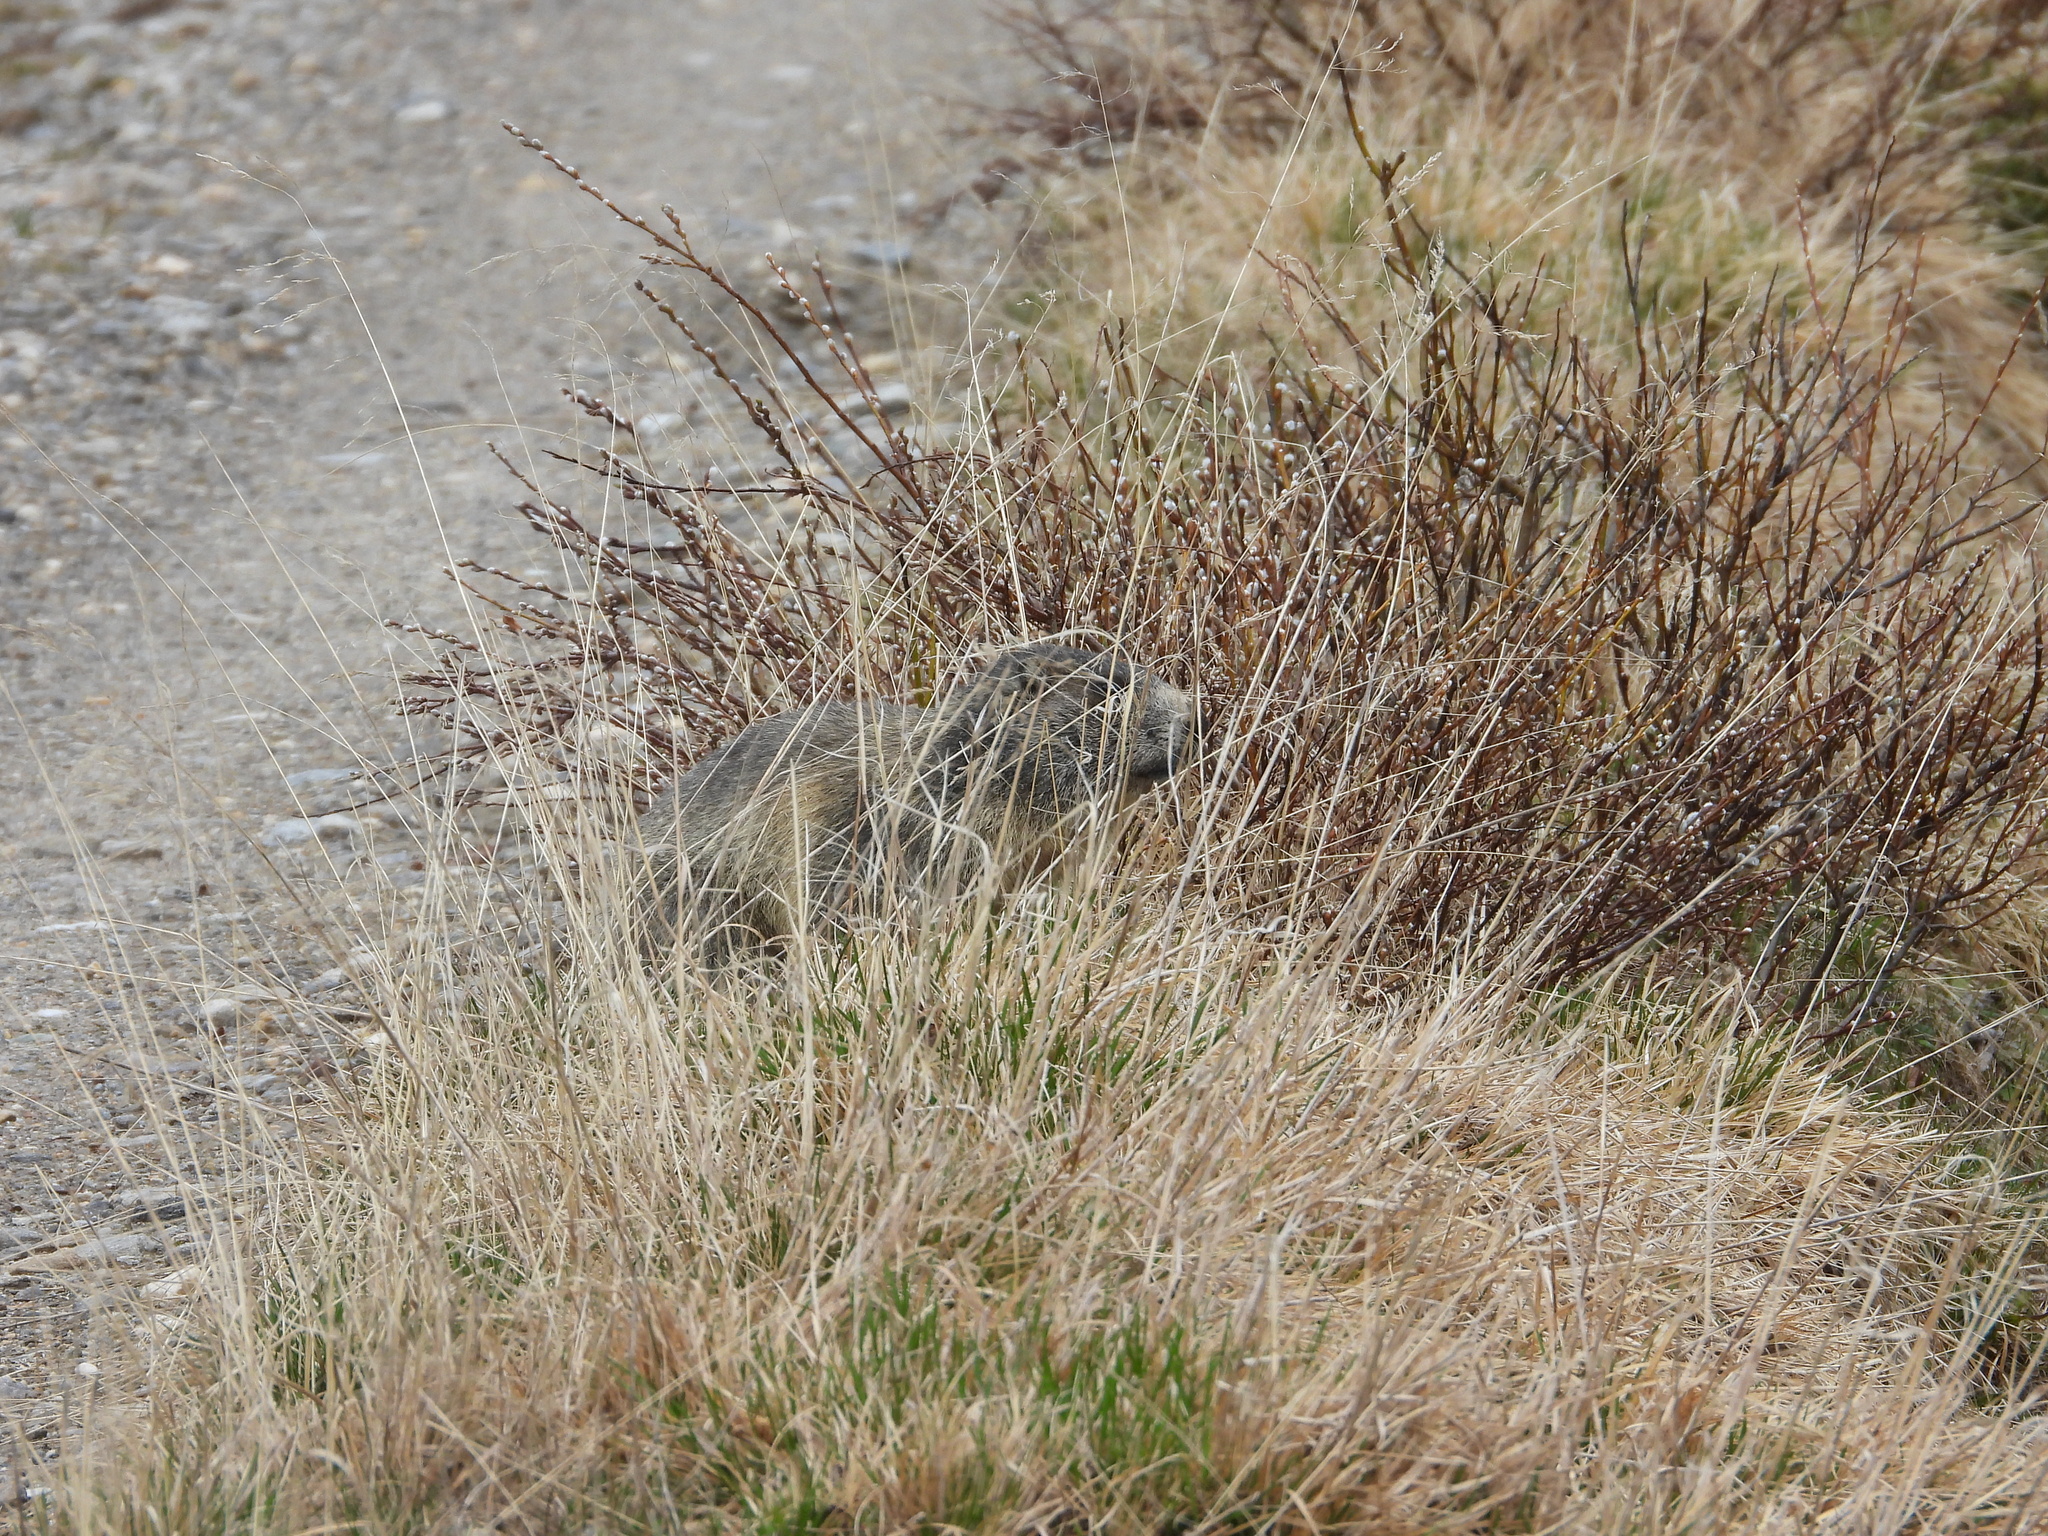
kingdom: Animalia
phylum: Chordata
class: Mammalia
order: Rodentia
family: Sciuridae
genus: Marmota
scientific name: Marmota marmota
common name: Alpine marmot
